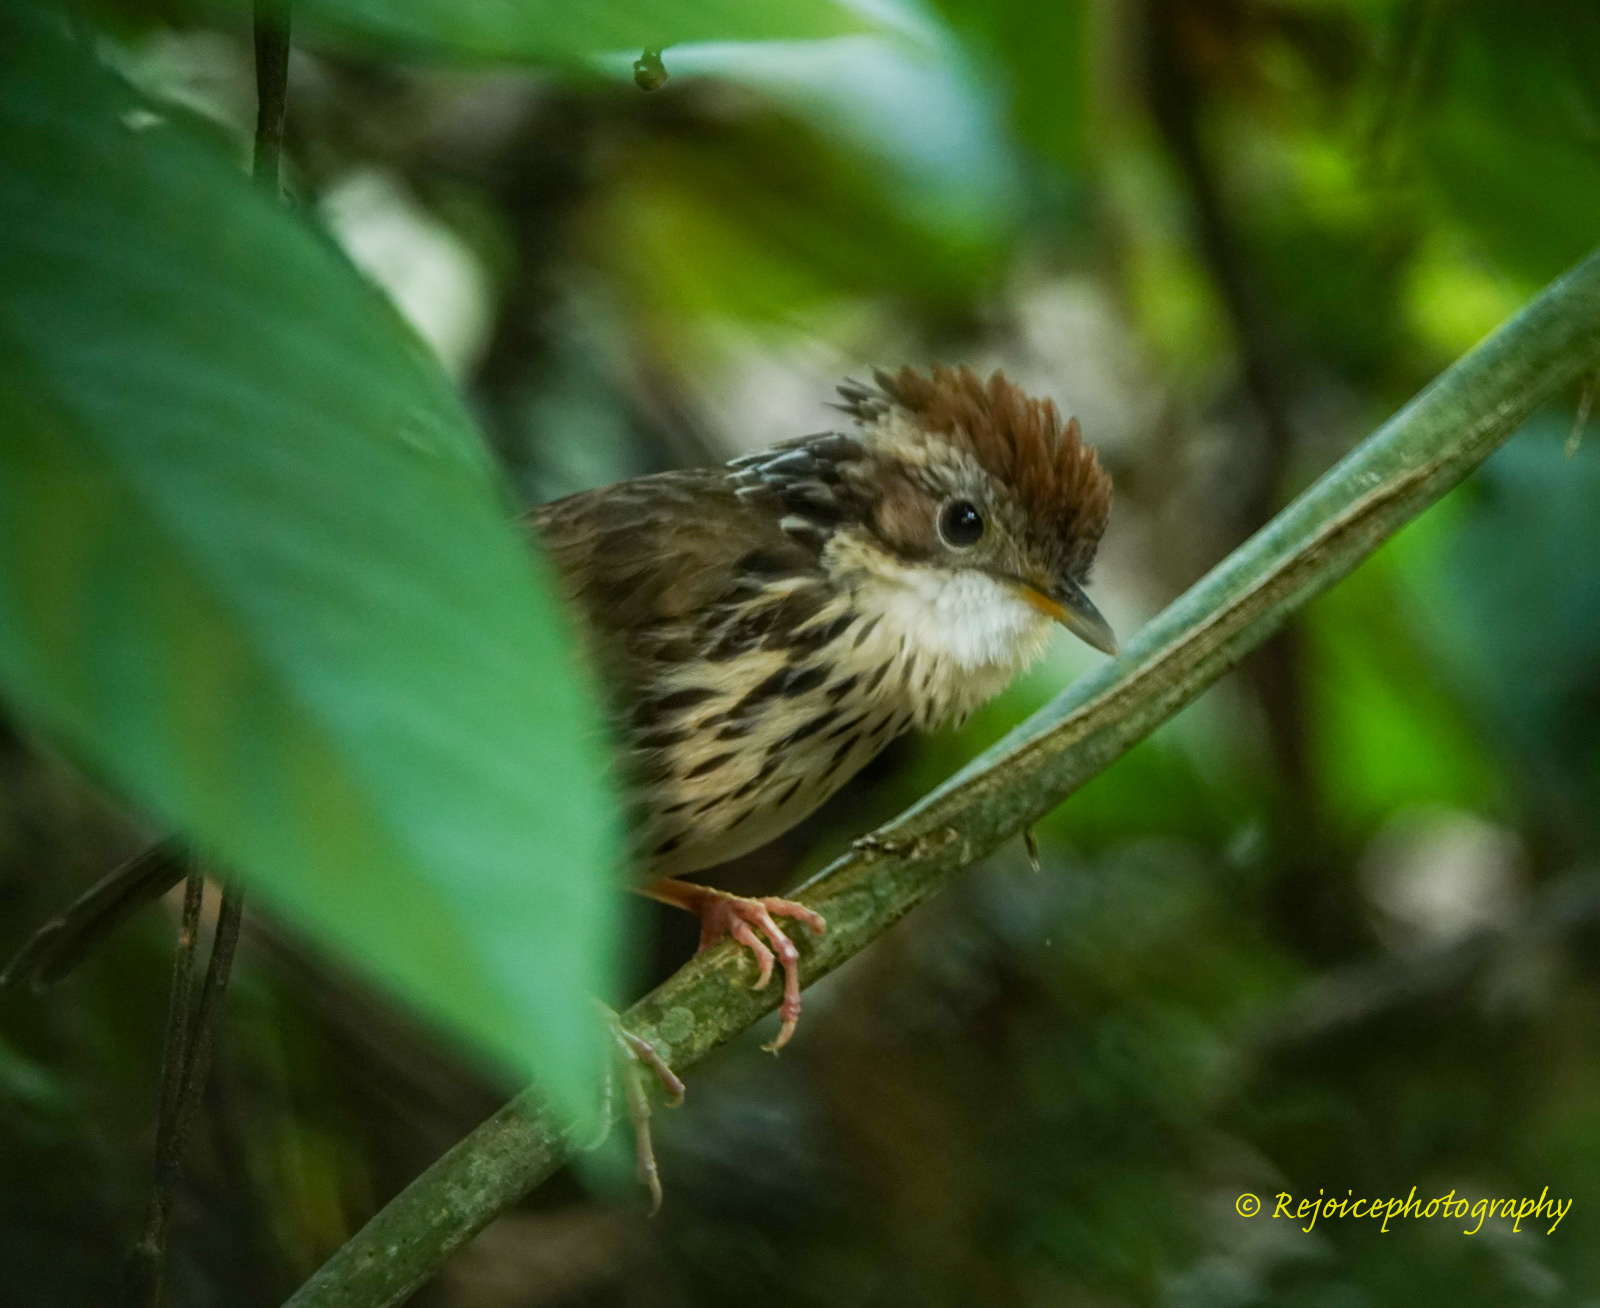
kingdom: Animalia
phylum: Chordata
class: Aves
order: Passeriformes
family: Pellorneidae
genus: Pellorneum
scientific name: Pellorneum ruficeps
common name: Puff-throated babbler
